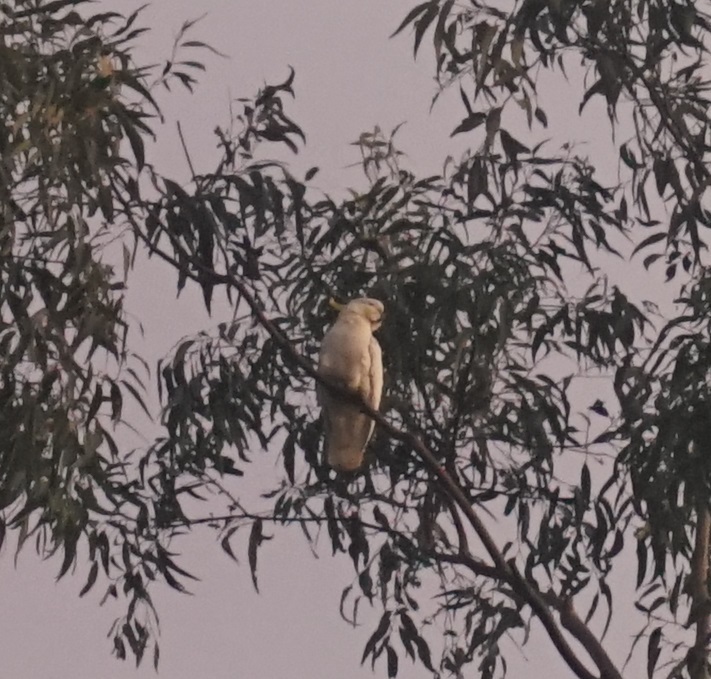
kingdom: Animalia
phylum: Chordata
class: Aves
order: Psittaciformes
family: Psittacidae
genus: Cacatua
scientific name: Cacatua galerita
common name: Sulphur-crested cockatoo
